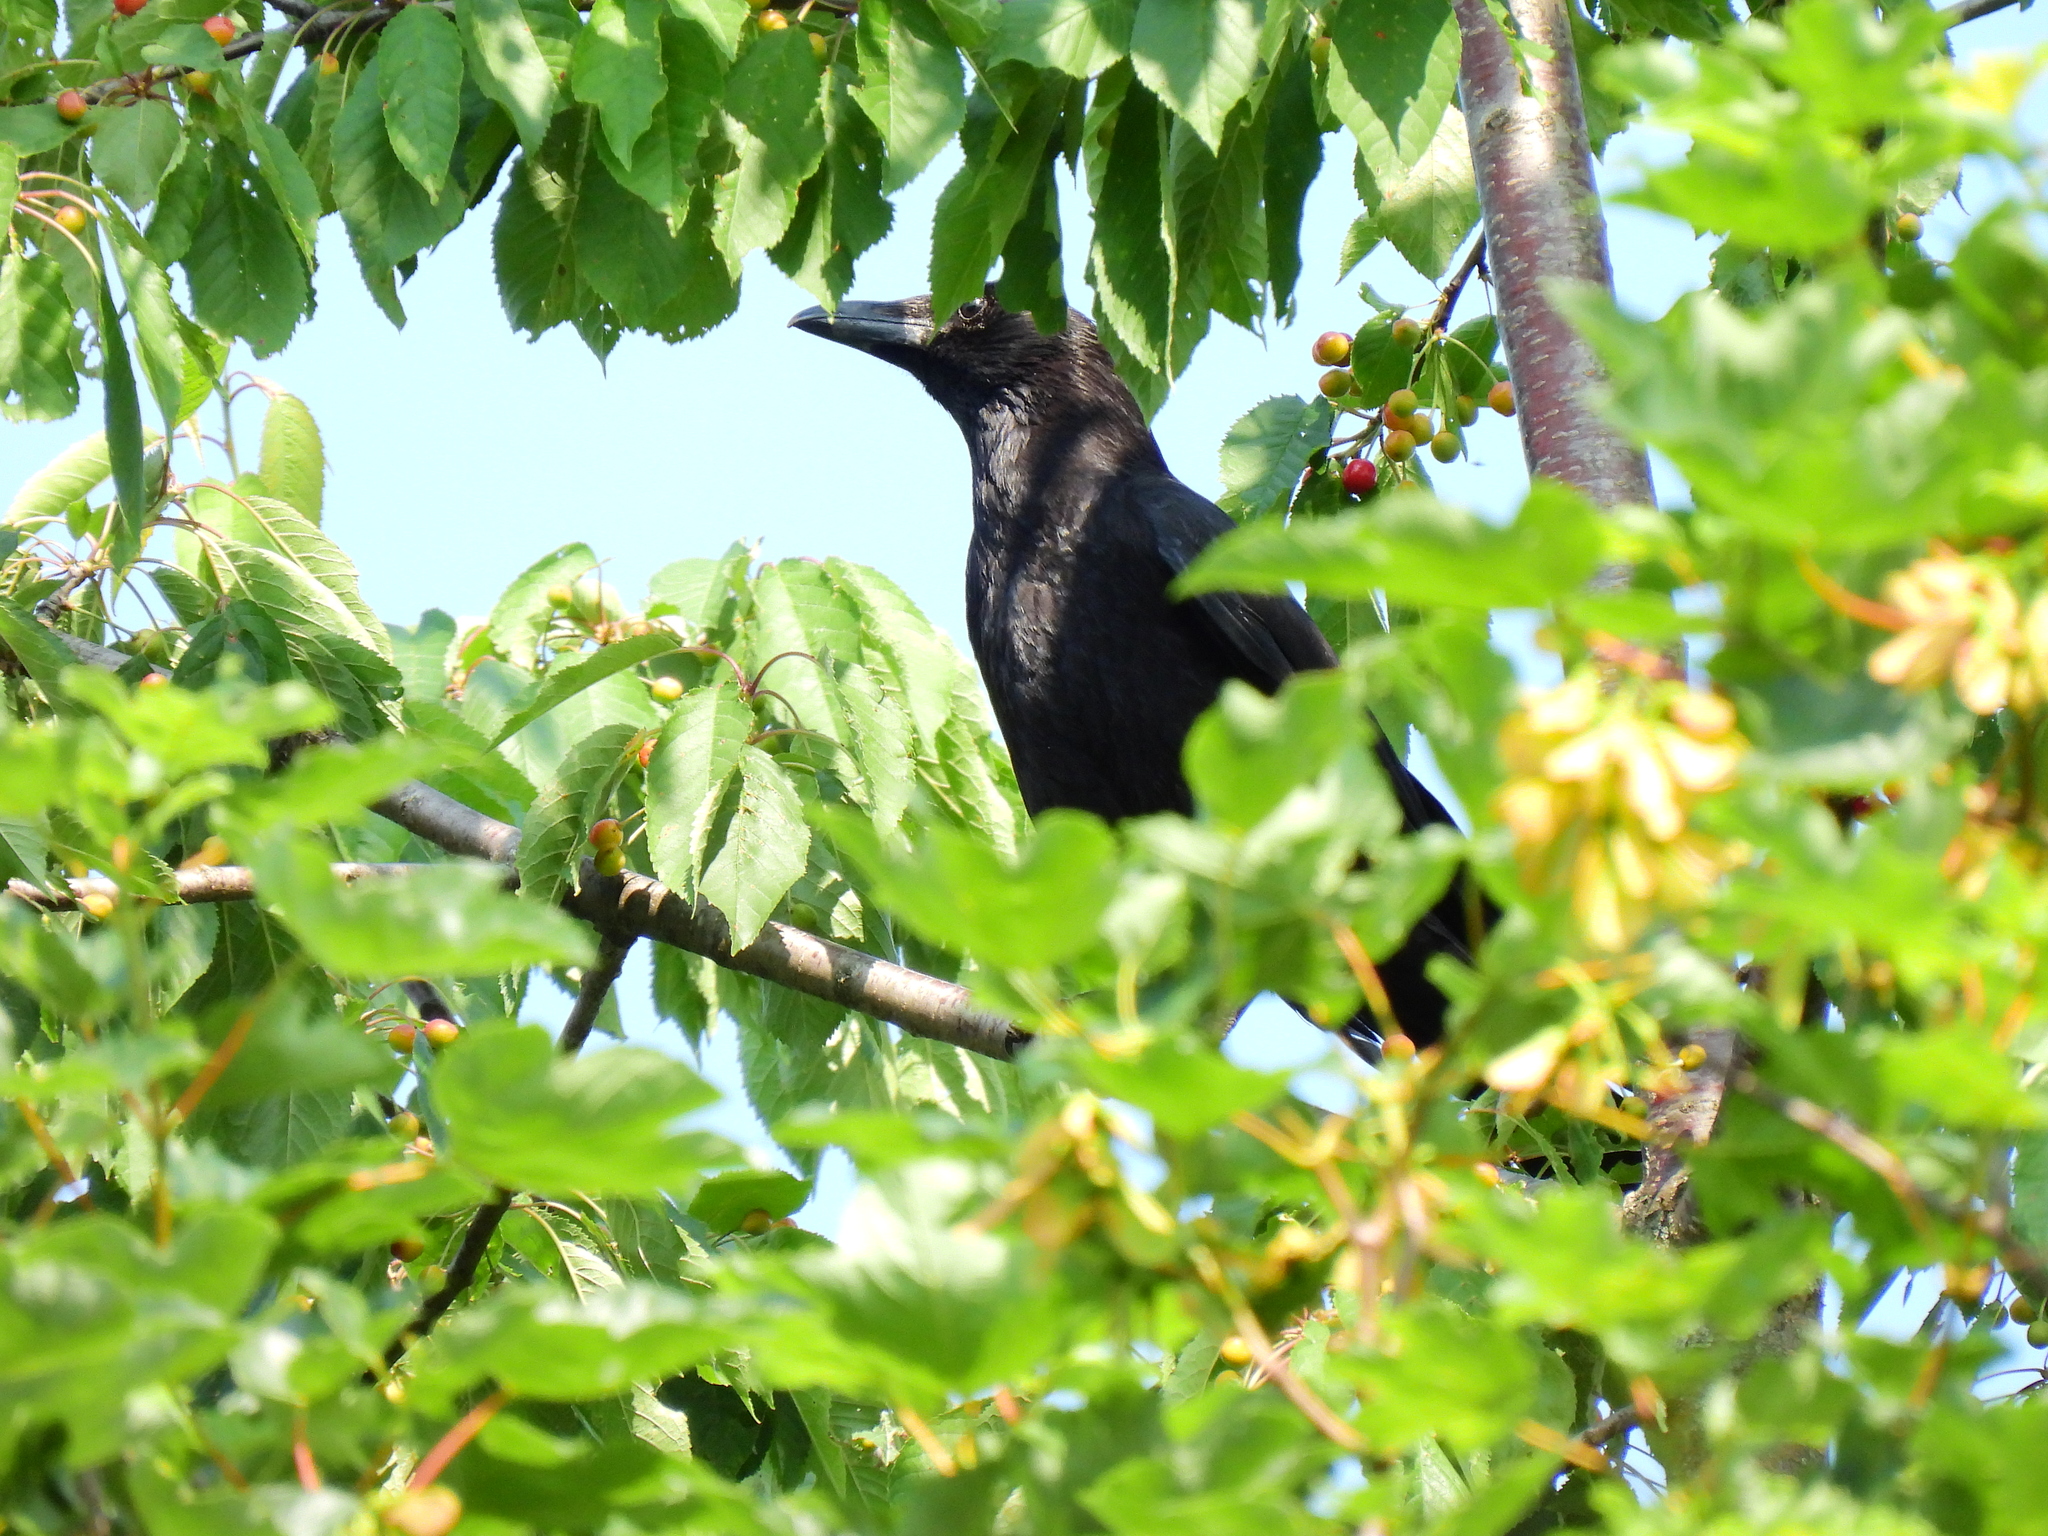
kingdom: Animalia
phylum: Chordata
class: Aves
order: Passeriformes
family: Corvidae
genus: Corvus
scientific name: Corvus corone
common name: Carrion crow
